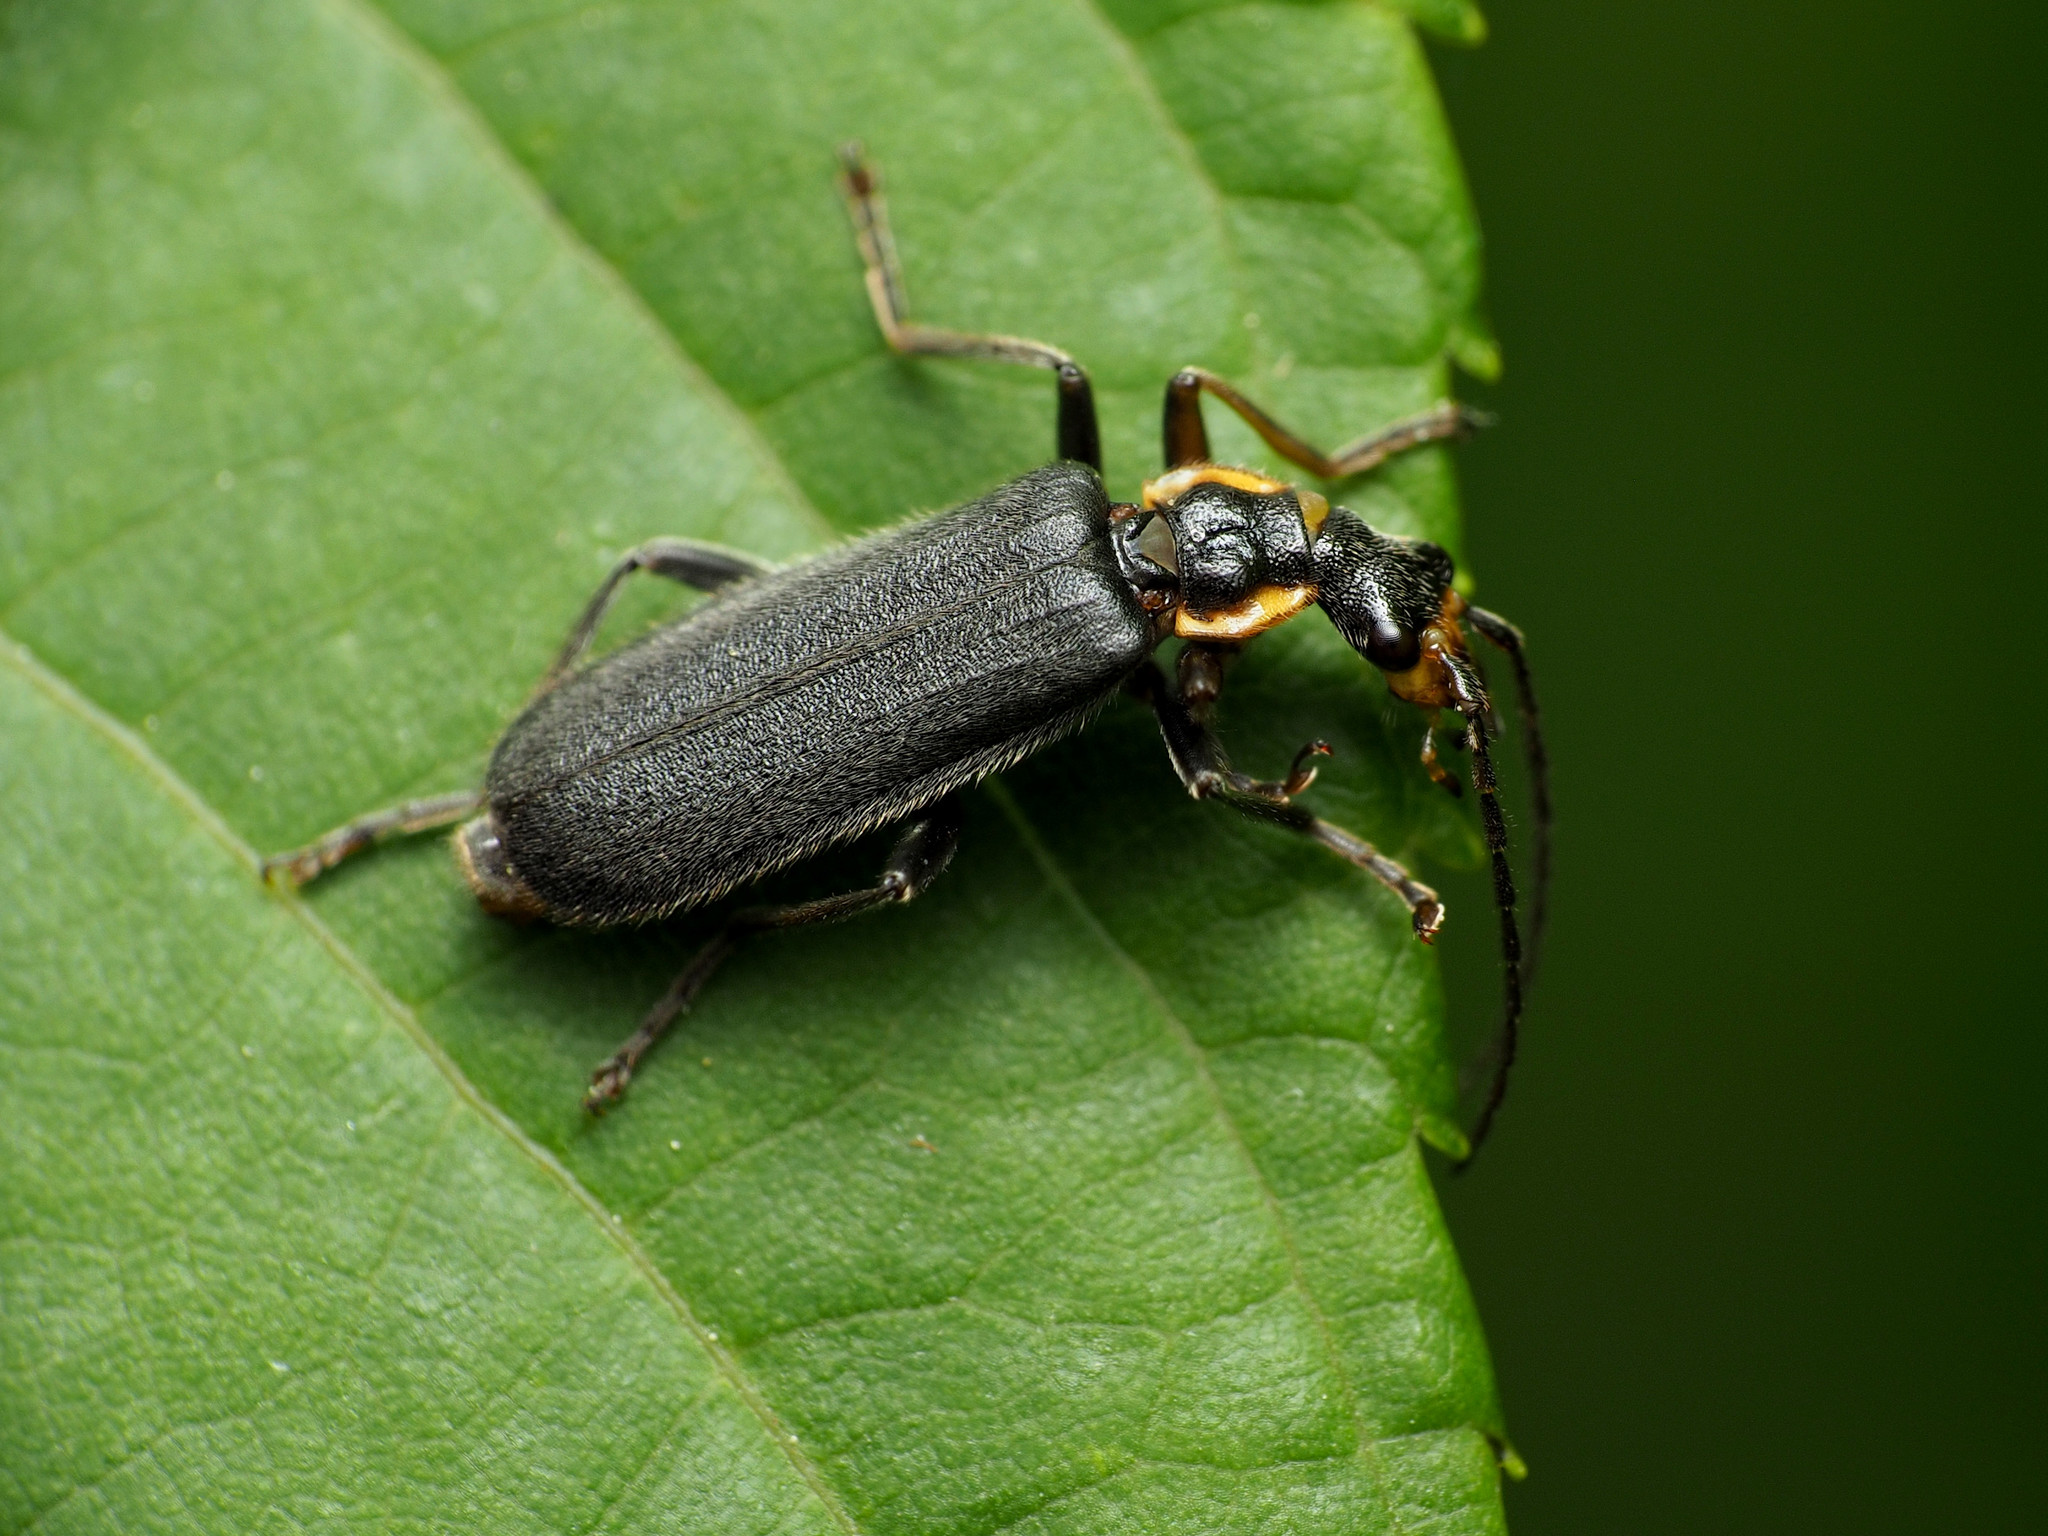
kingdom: Animalia
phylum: Arthropoda
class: Insecta
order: Coleoptera
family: Cantharidae
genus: Podabrus
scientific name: Podabrus rugosulus
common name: Wrinkled soldier beetle
